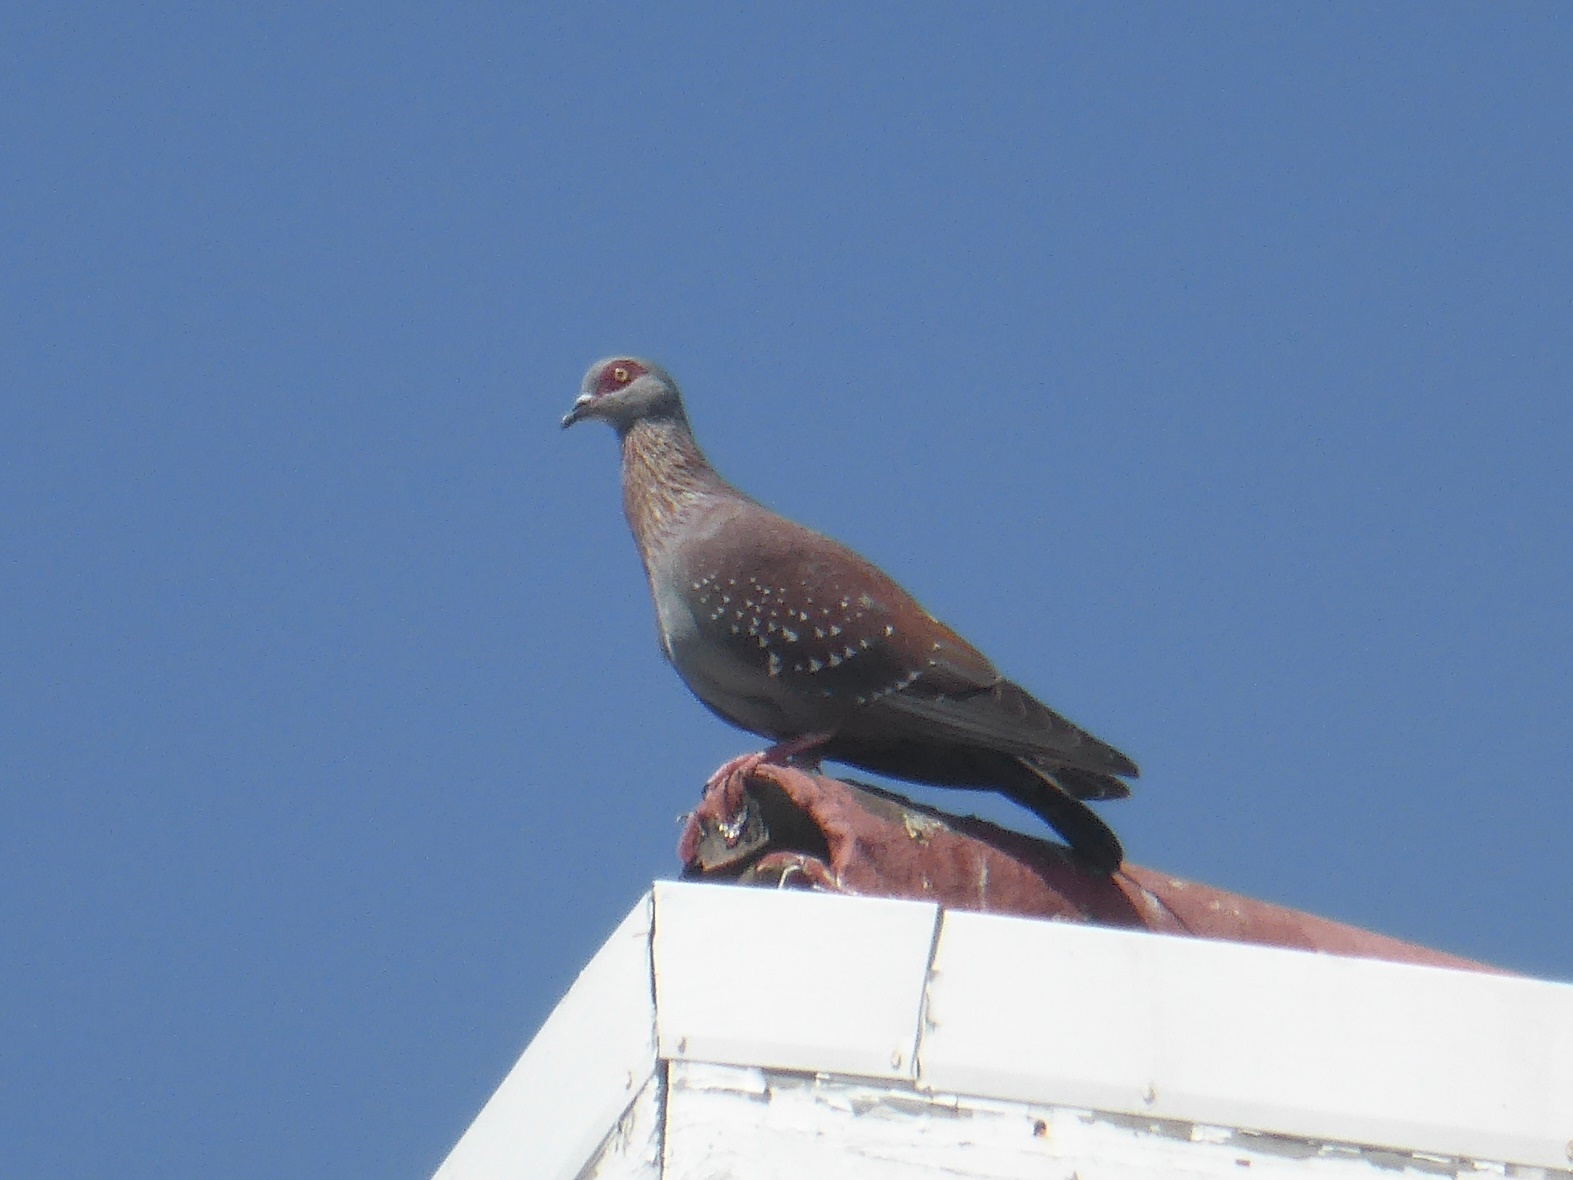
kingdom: Animalia
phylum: Chordata
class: Aves
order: Columbiformes
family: Columbidae
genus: Columba
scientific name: Columba guinea
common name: Speckled pigeon
